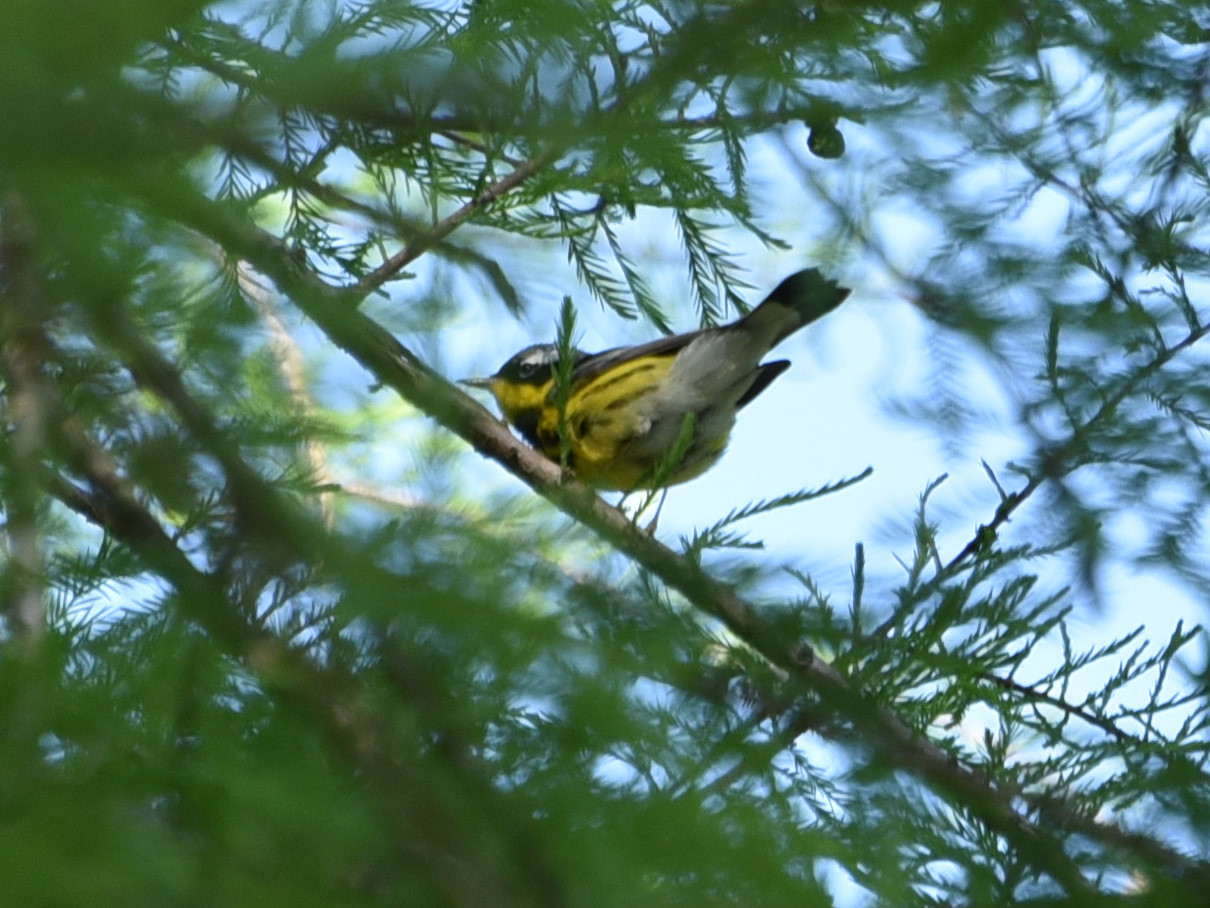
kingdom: Animalia
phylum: Chordata
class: Aves
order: Passeriformes
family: Parulidae
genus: Setophaga
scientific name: Setophaga magnolia
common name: Magnolia warbler
